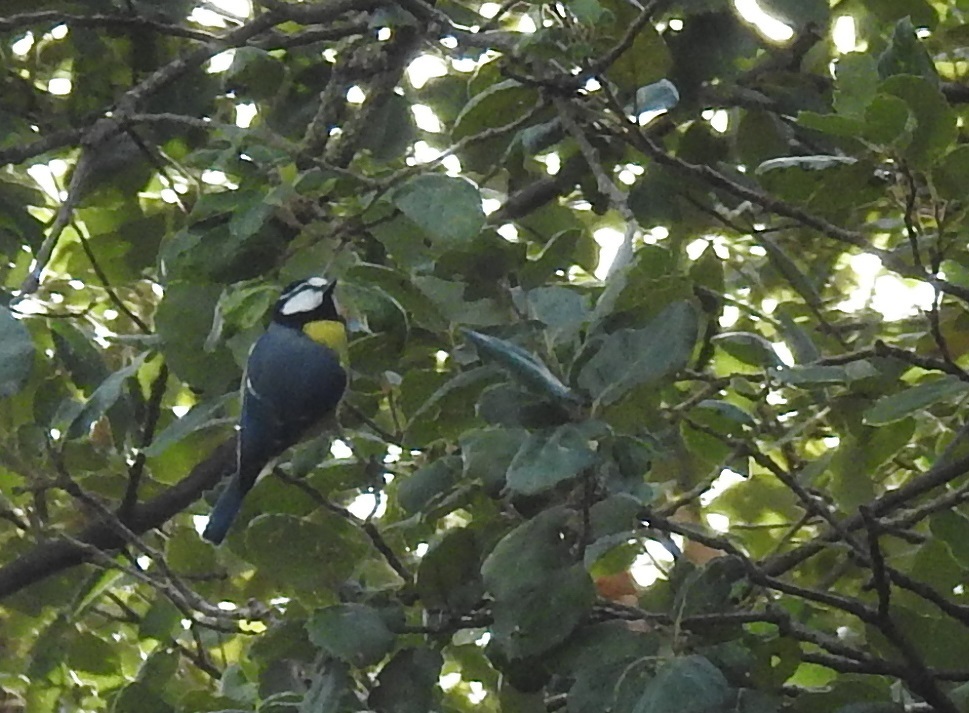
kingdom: Animalia
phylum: Chordata
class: Aves
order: Passeriformes
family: Paridae
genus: Cyanistes
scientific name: Cyanistes teneriffae
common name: African blue tit
